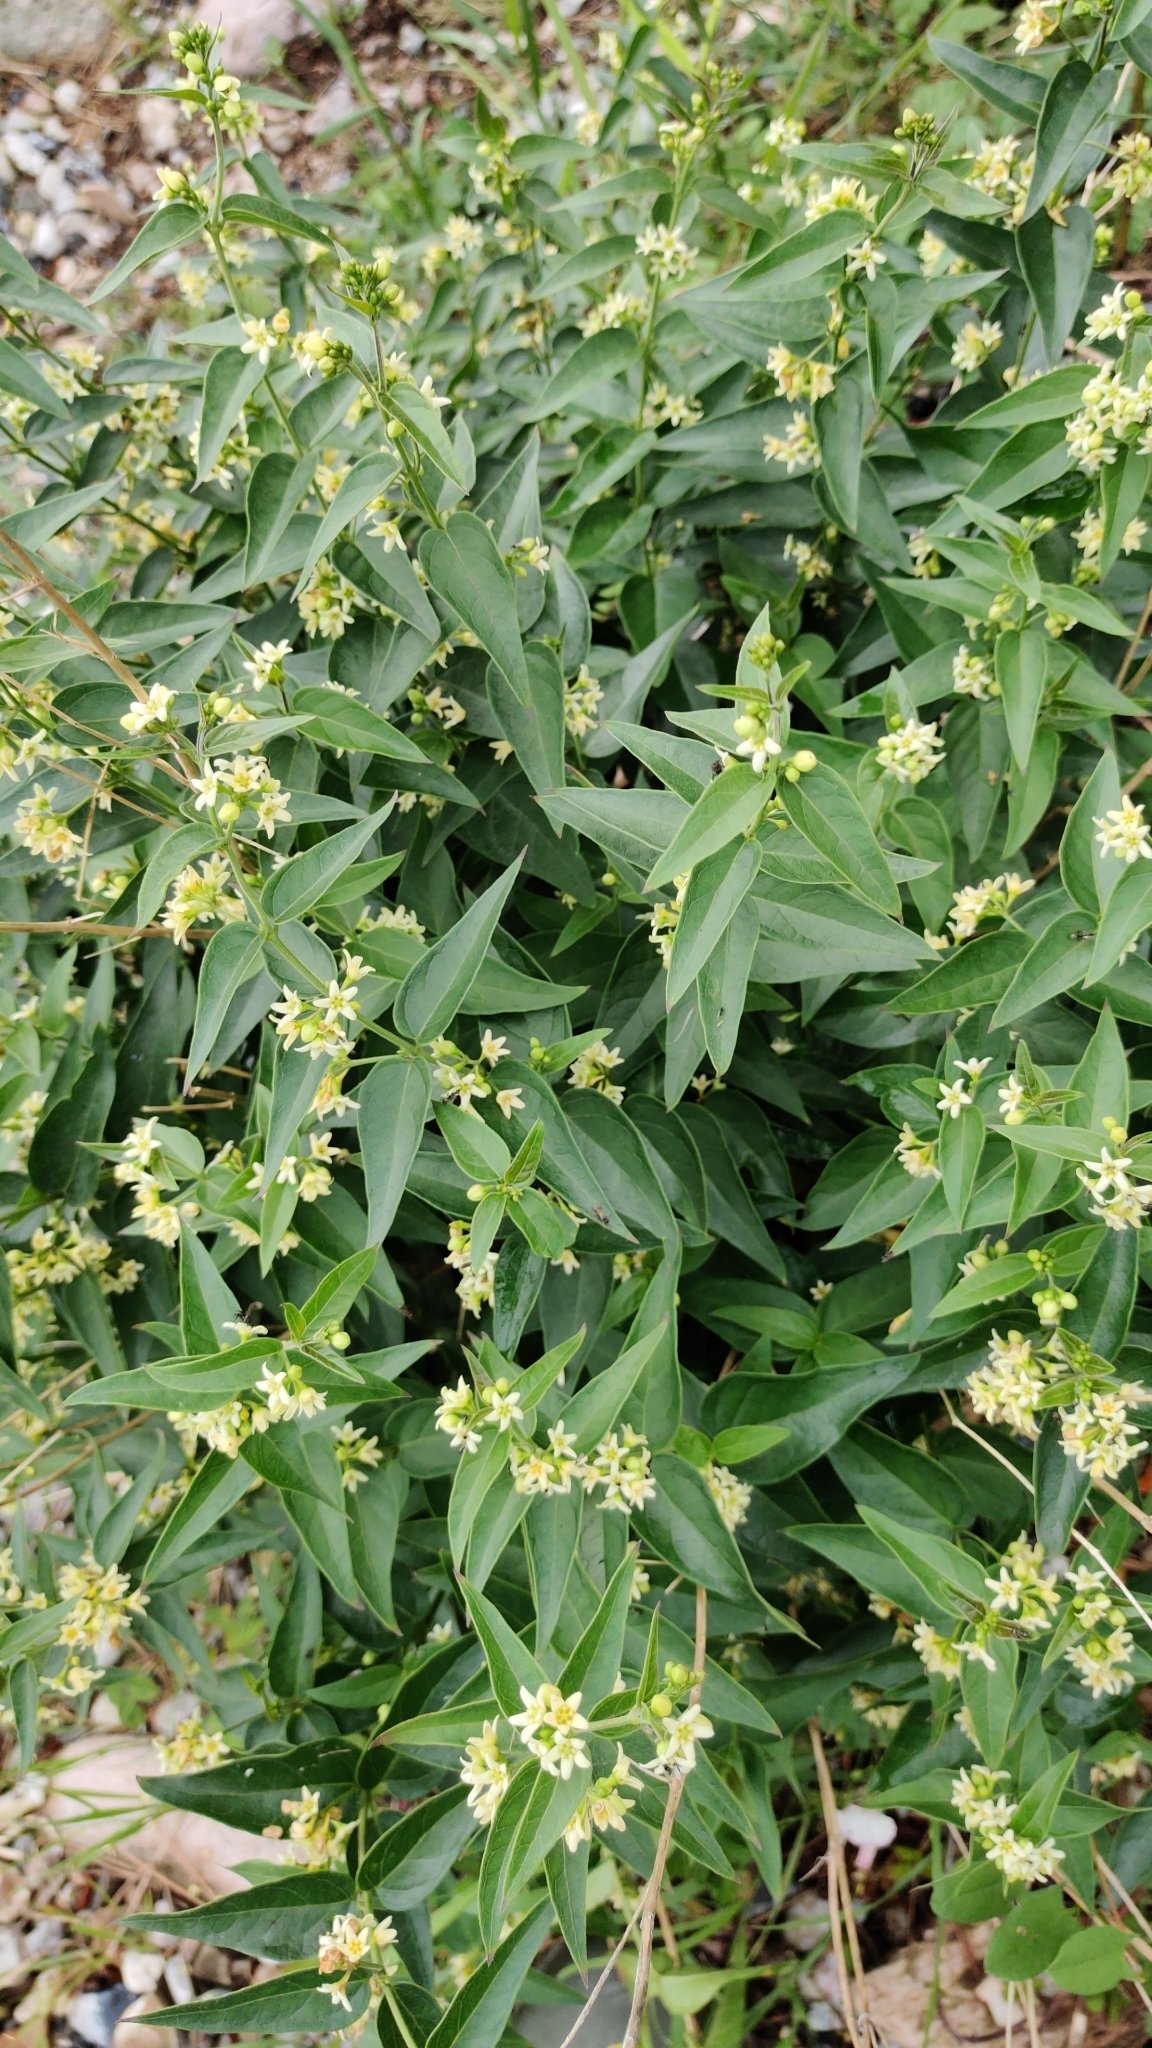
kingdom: Plantae
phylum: Tracheophyta
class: Magnoliopsida
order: Gentianales
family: Apocynaceae
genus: Vincetoxicum
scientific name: Vincetoxicum hirundinaria
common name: White swallowwort
